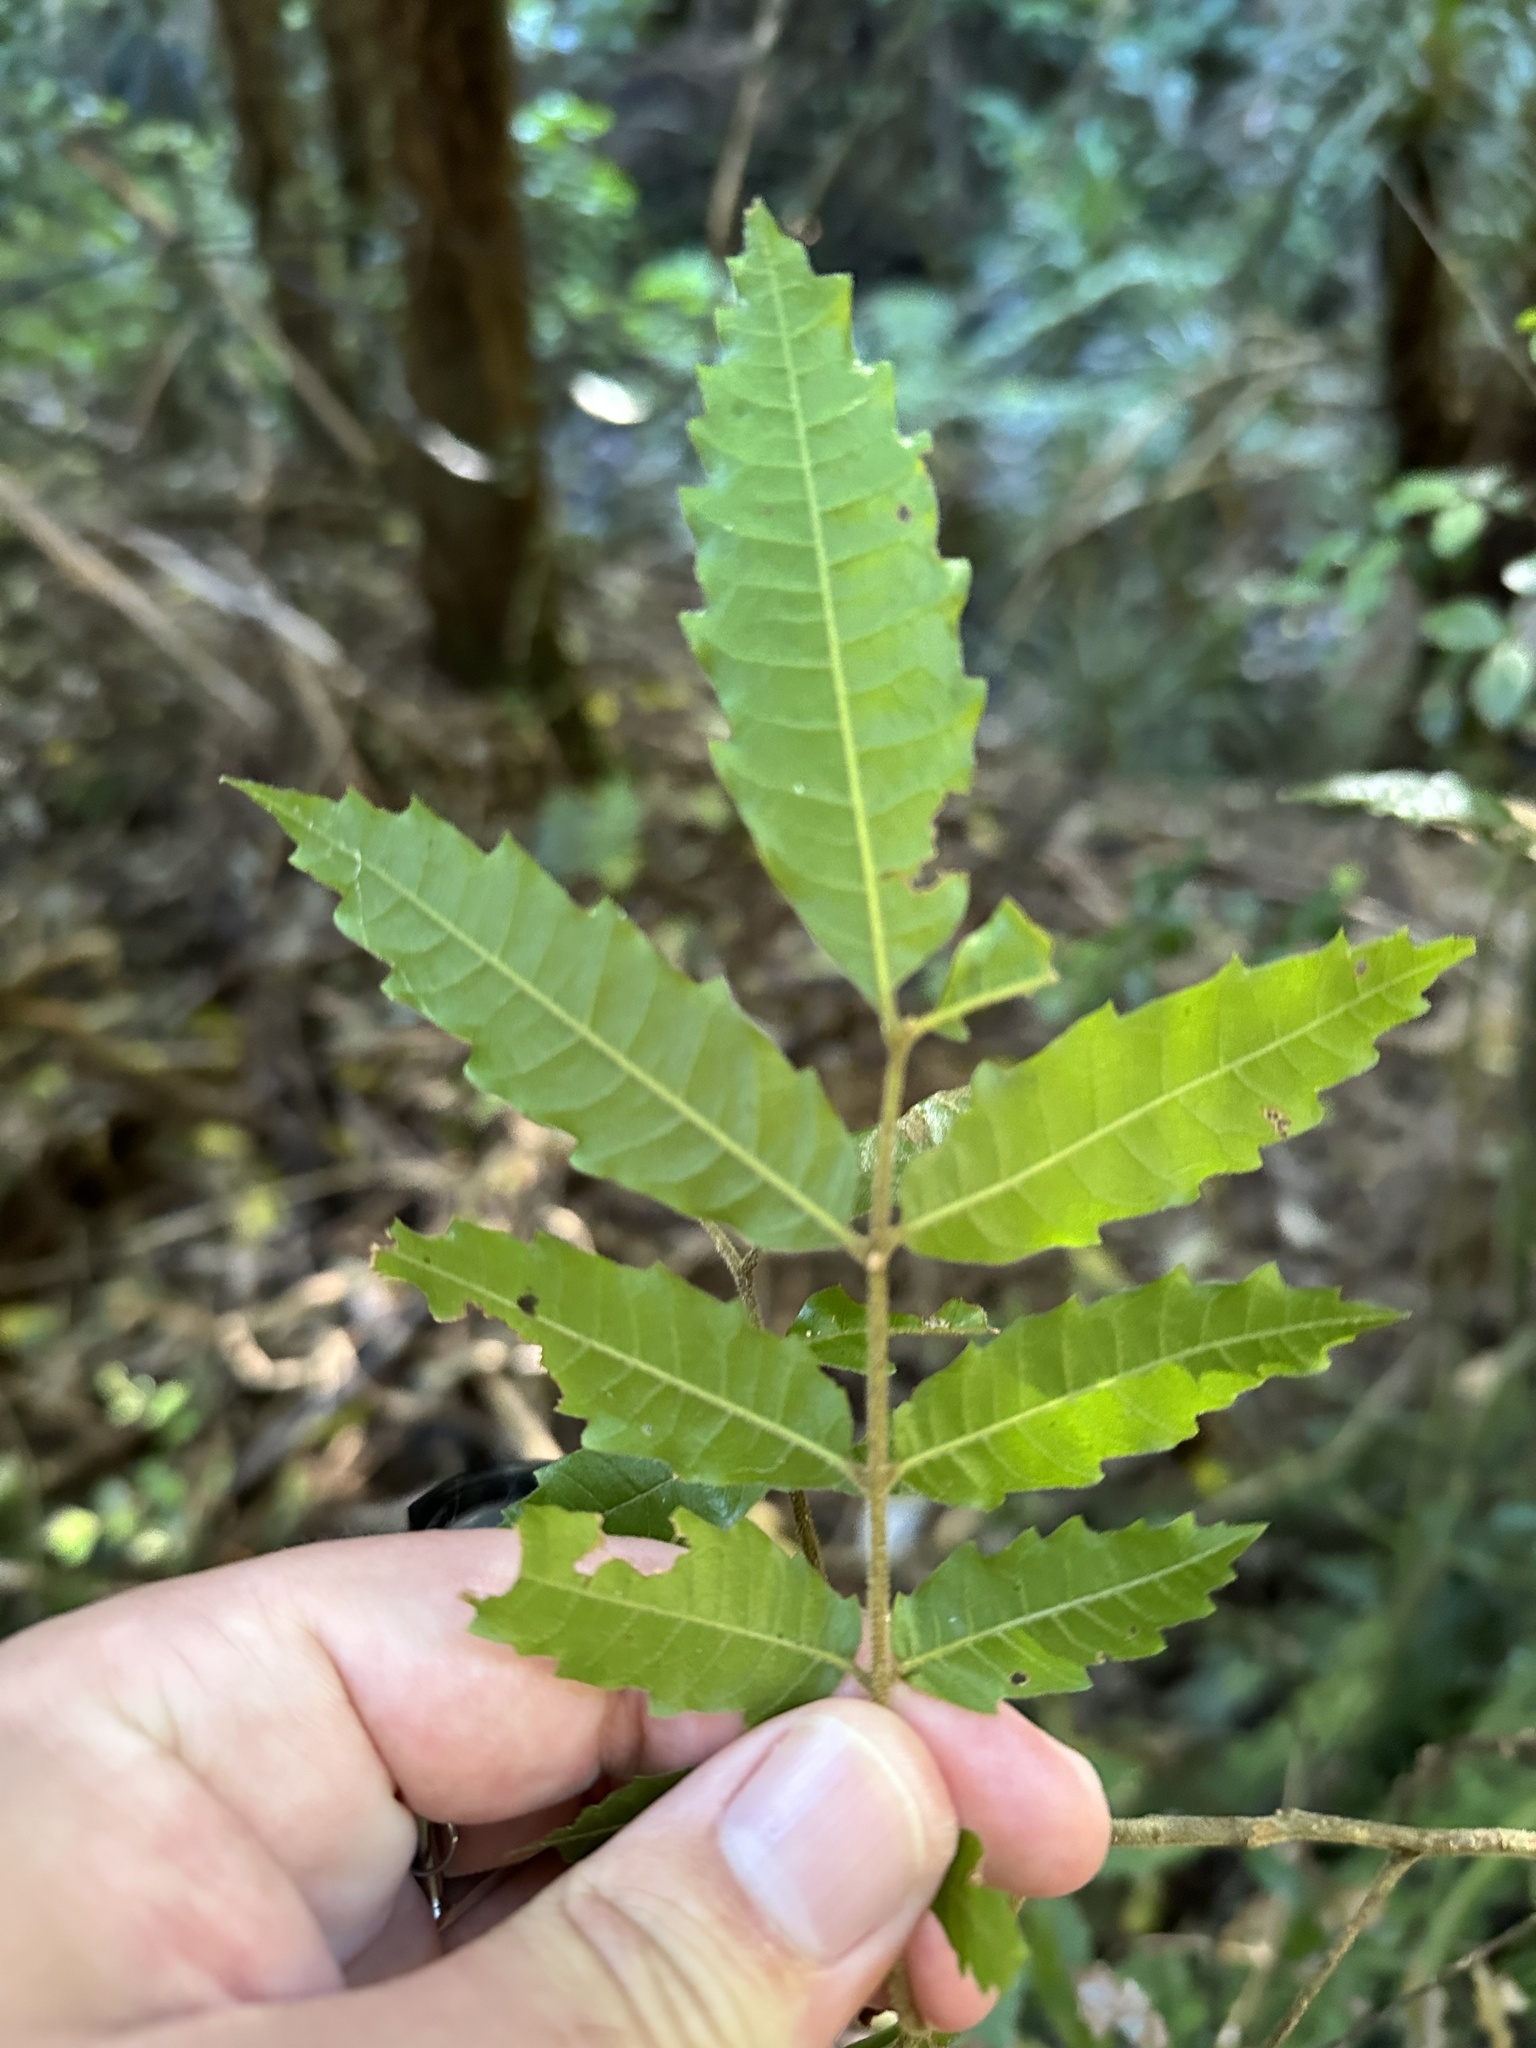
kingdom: Plantae
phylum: Tracheophyta
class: Magnoliopsida
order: Sapindales
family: Sapindaceae
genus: Alectryon
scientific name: Alectryon excelsus
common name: Three kings titoki
